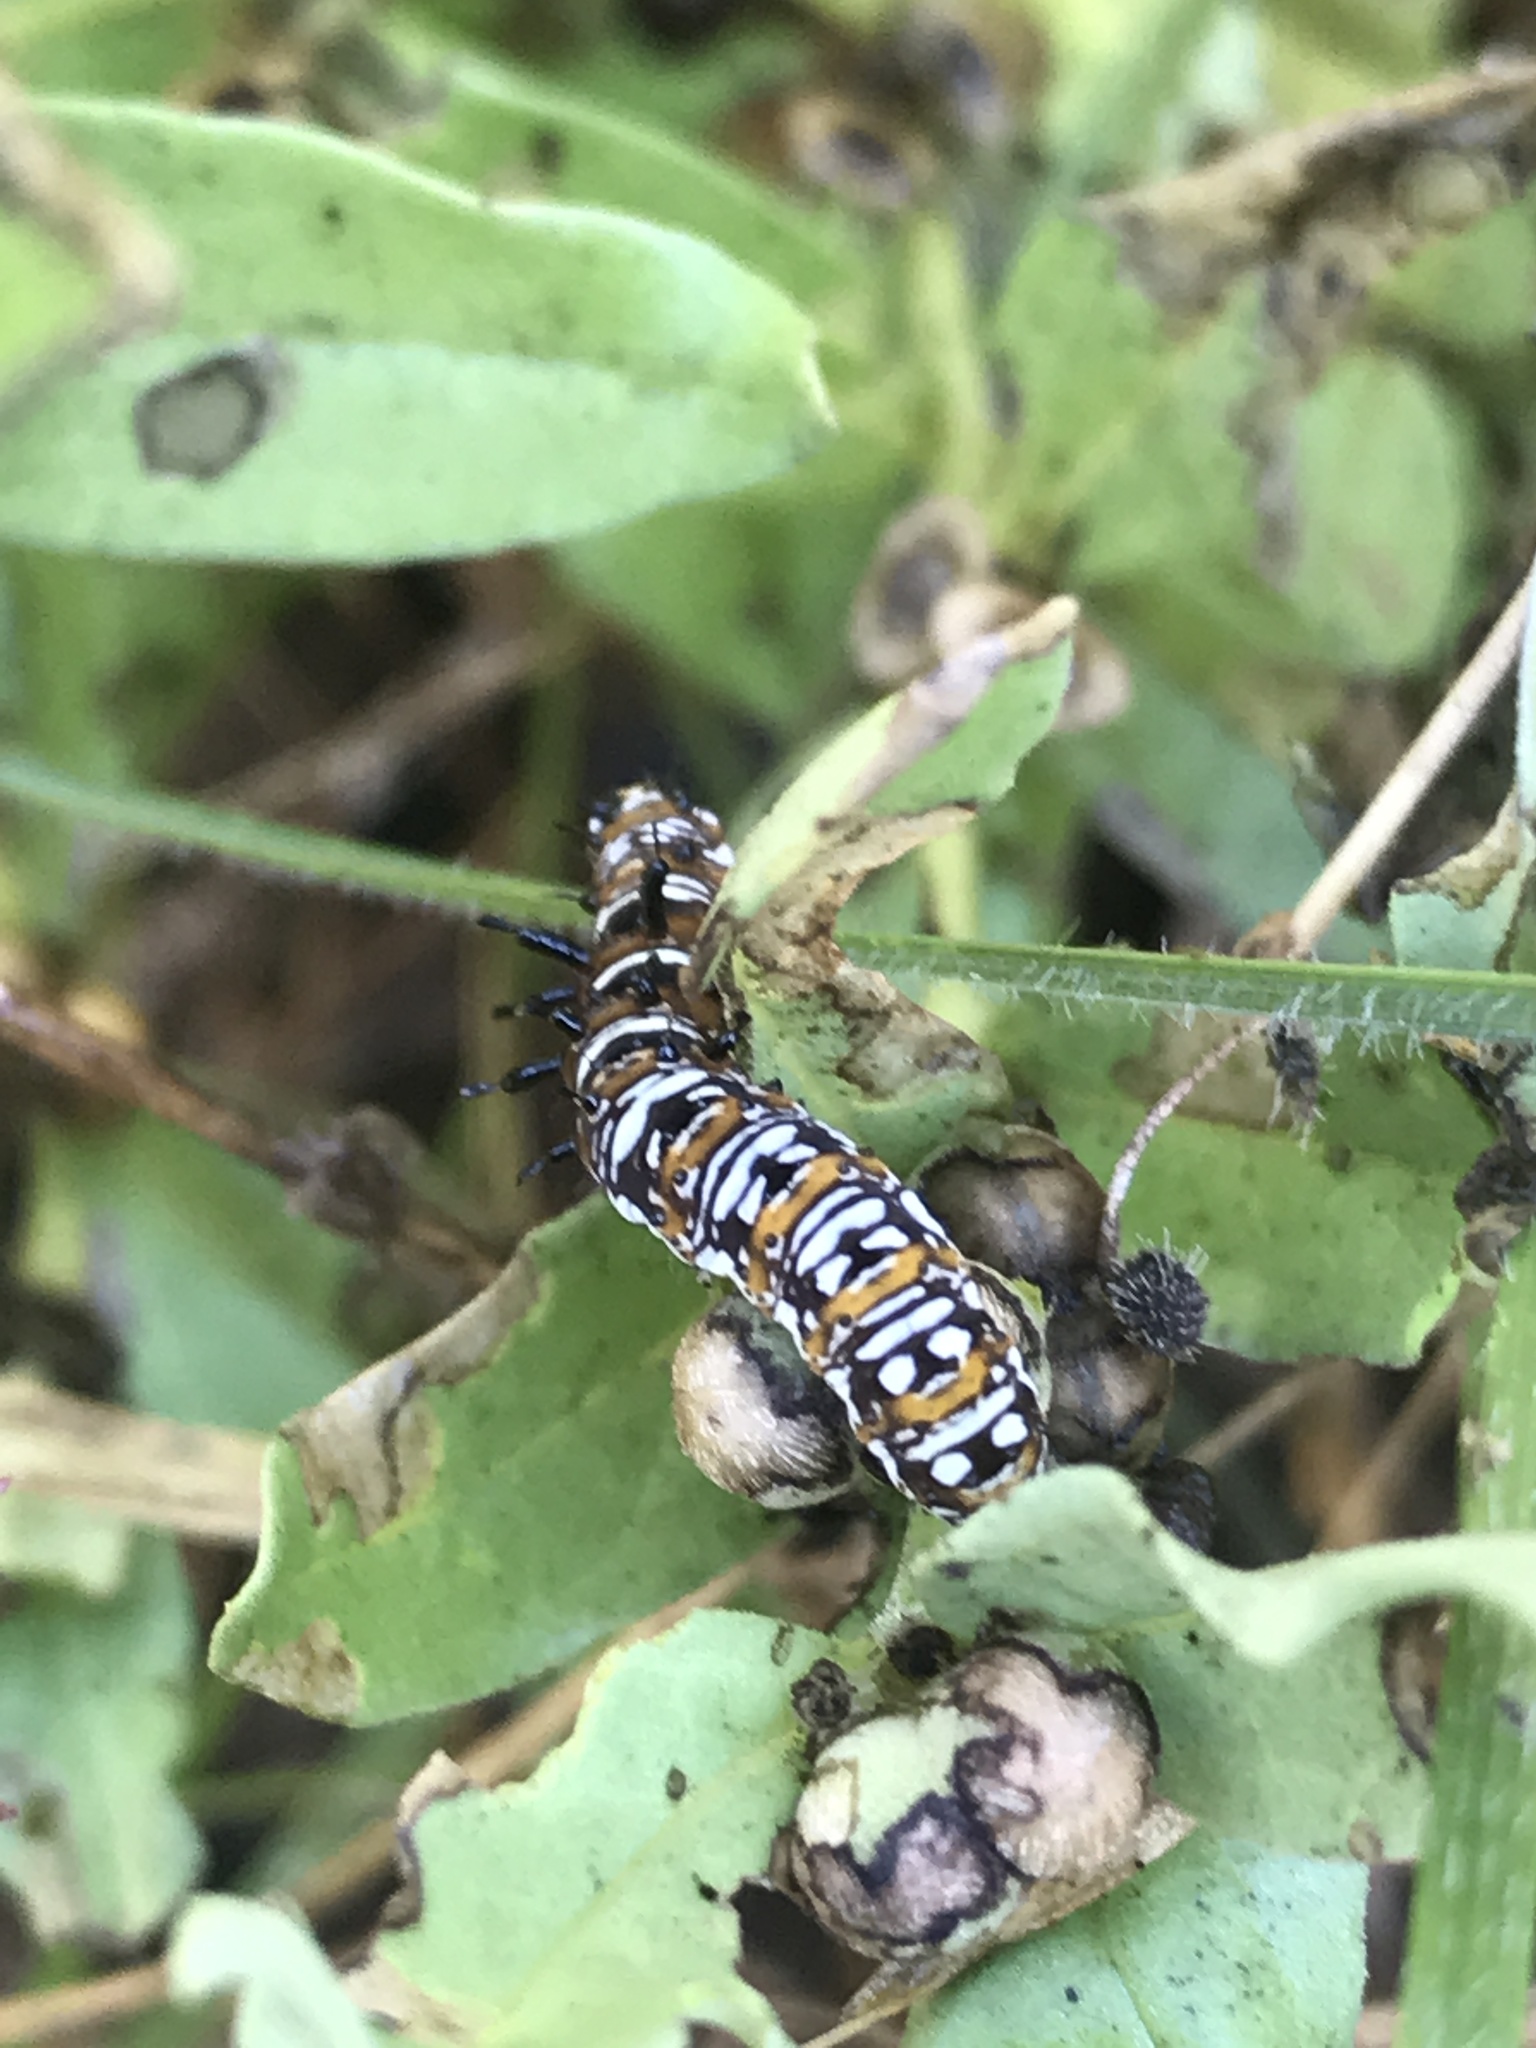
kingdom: Animalia
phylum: Arthropoda
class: Insecta
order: Lepidoptera
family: Noctuidae
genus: Cydosia
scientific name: Cydosia aurivitta
